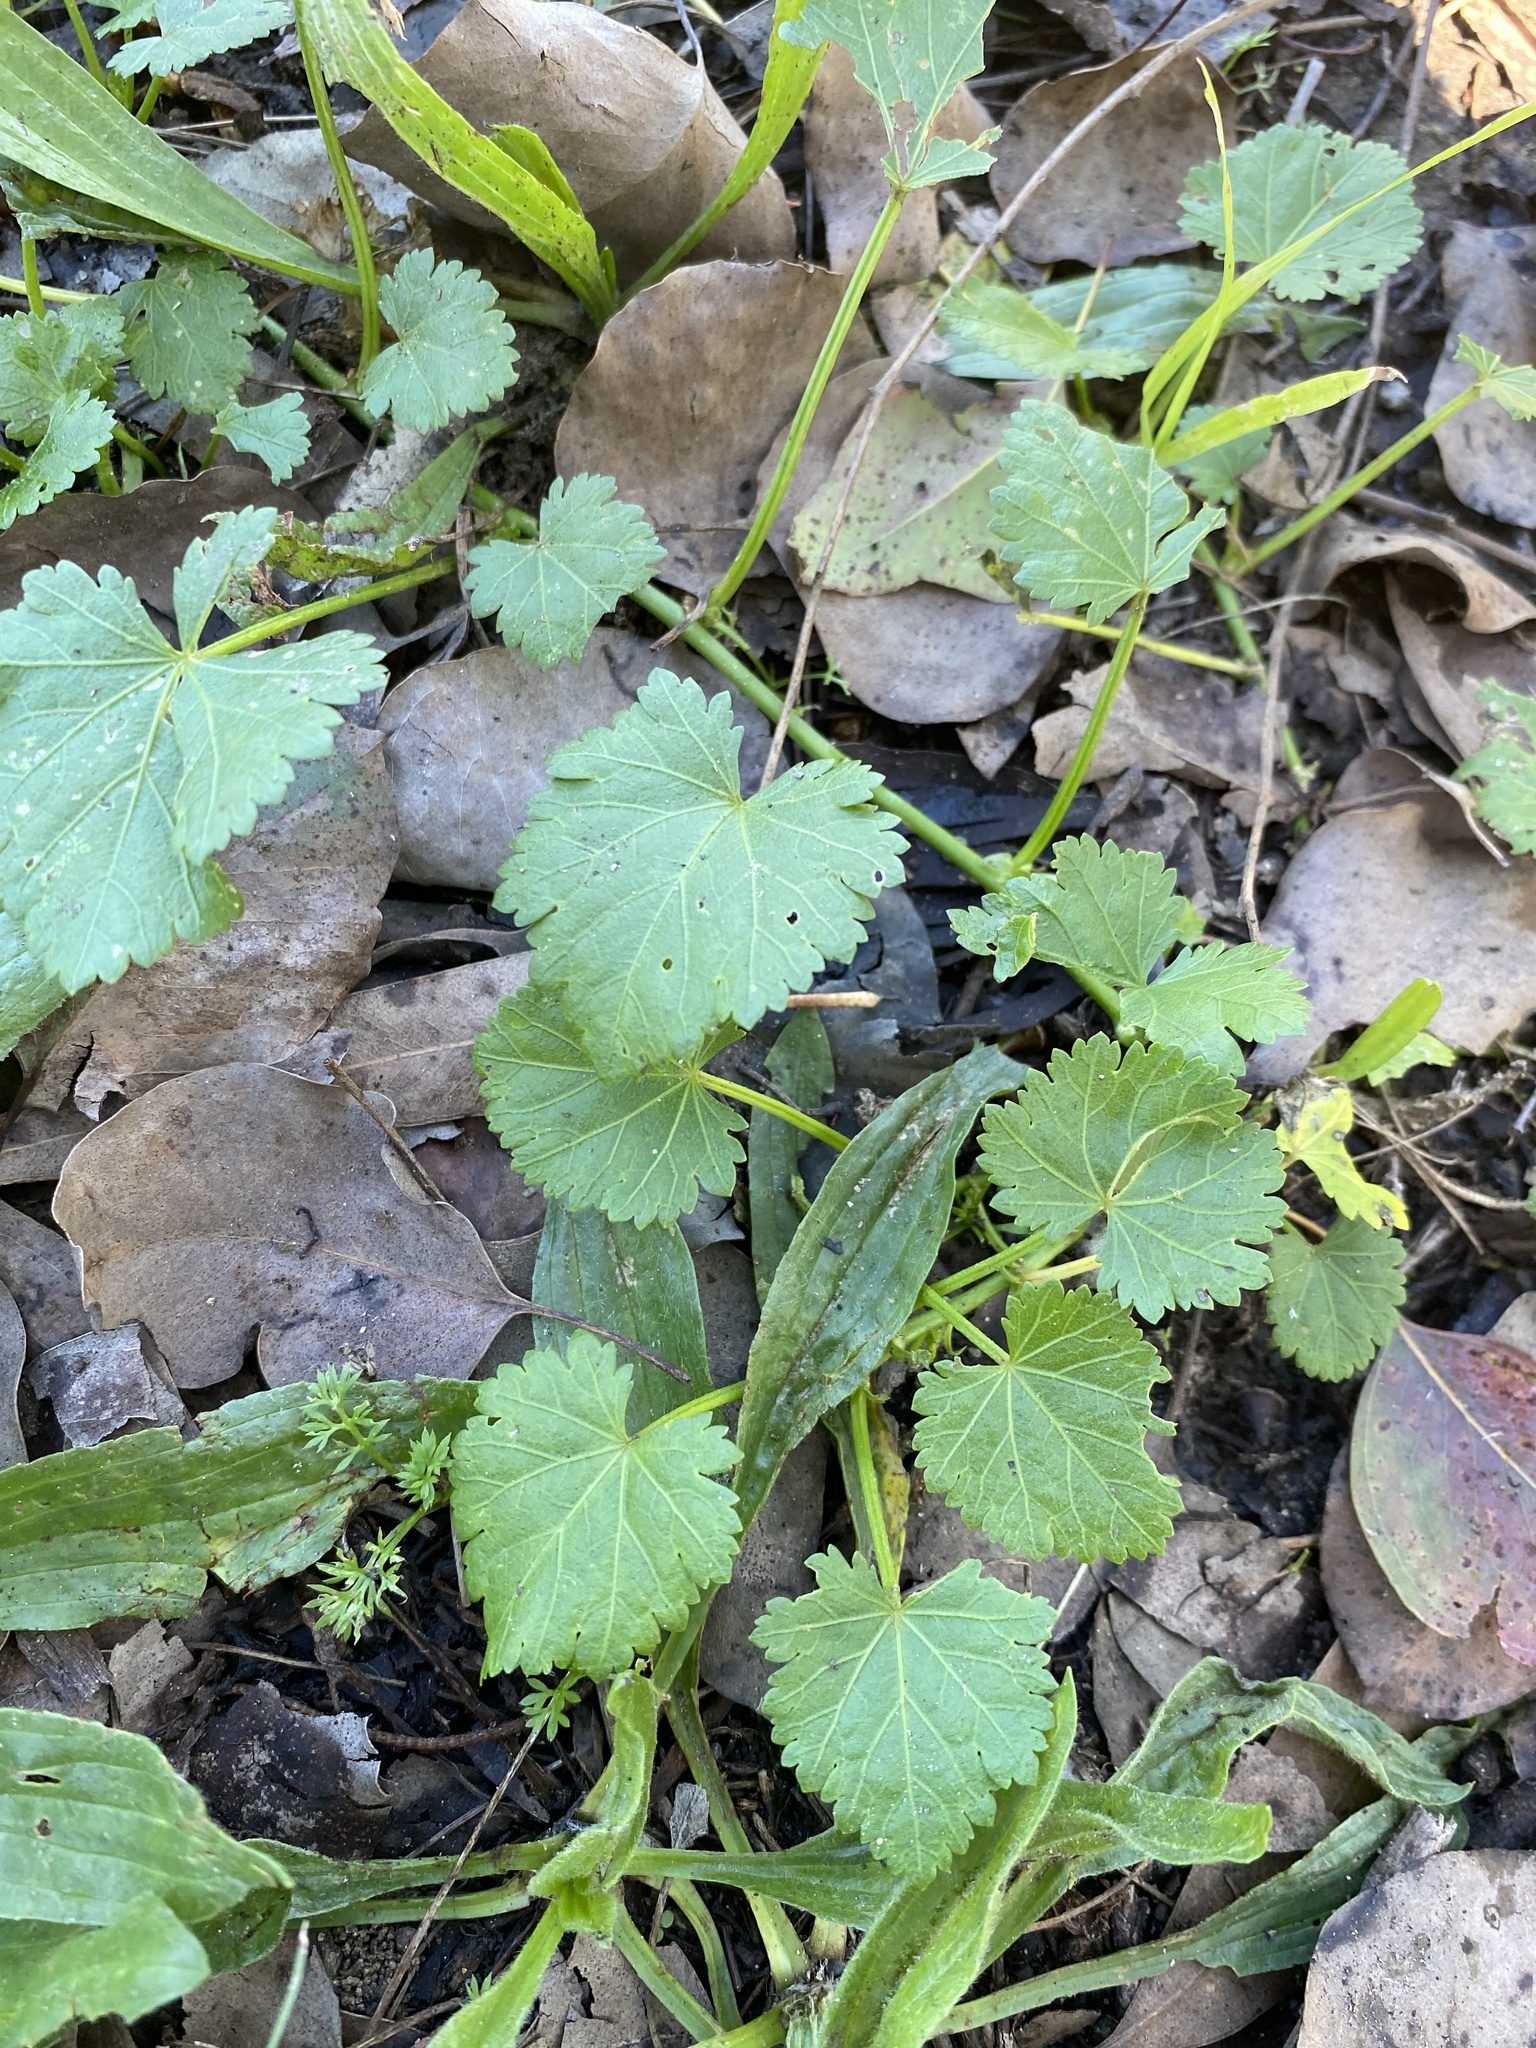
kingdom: Plantae
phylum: Tracheophyta
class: Magnoliopsida
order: Malvales
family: Malvaceae
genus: Modiola
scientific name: Modiola caroliniana
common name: Carolina bristlemallow
